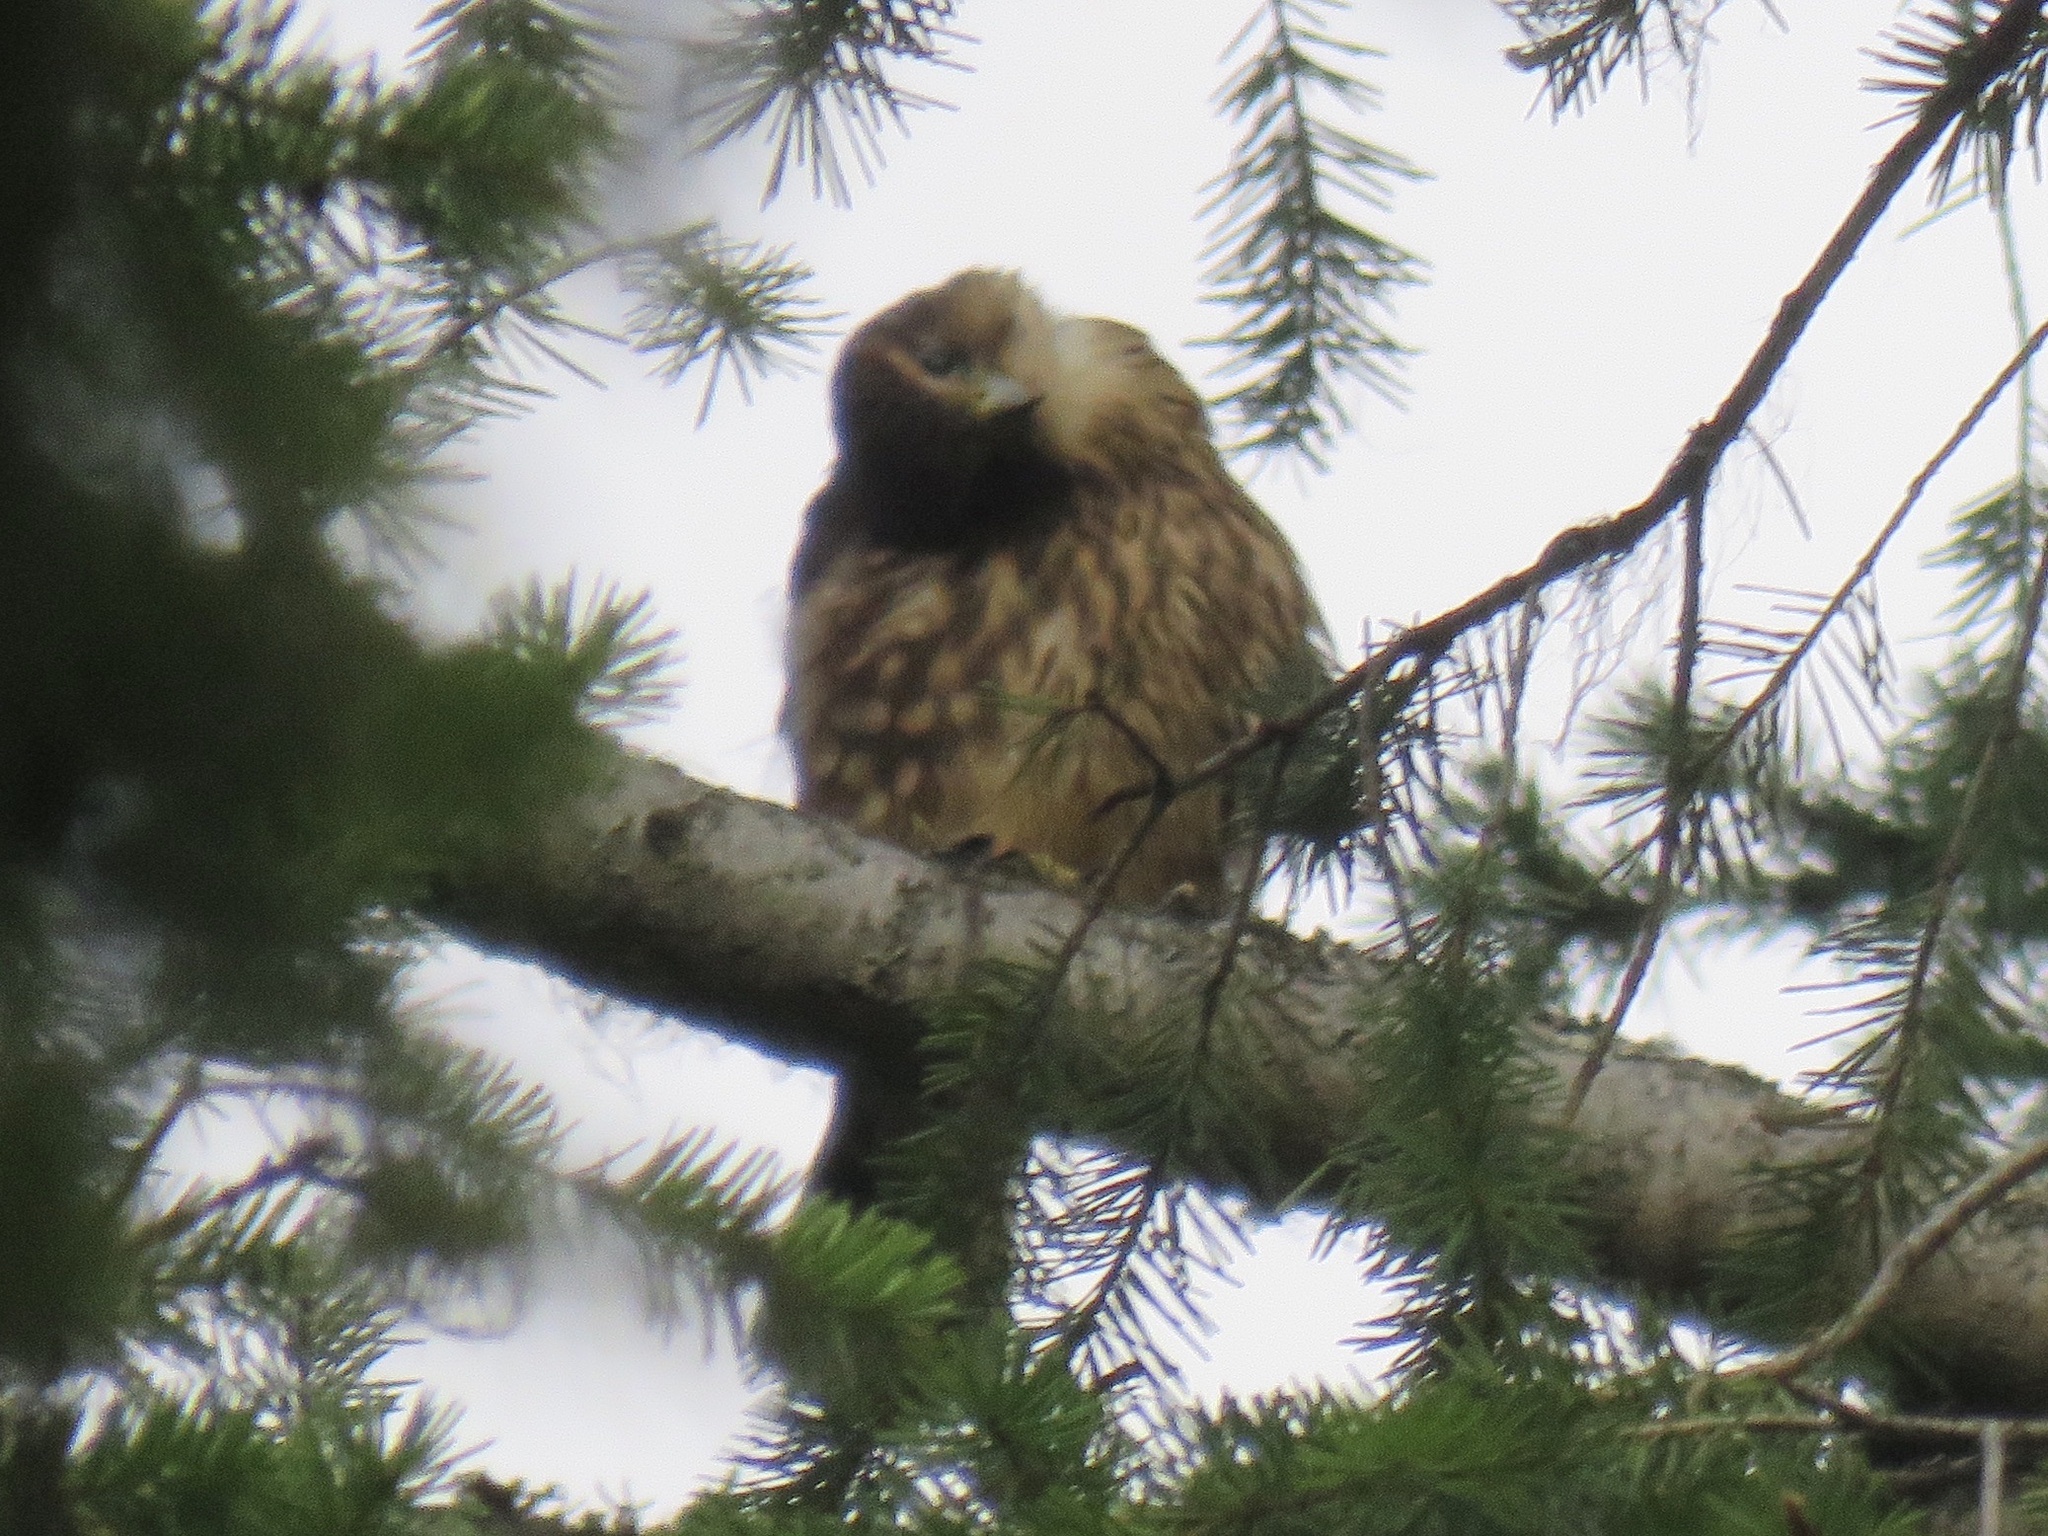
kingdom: Animalia
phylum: Chordata
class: Aves
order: Falconiformes
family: Falconidae
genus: Falco
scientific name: Falco columbarius
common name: Merlin
